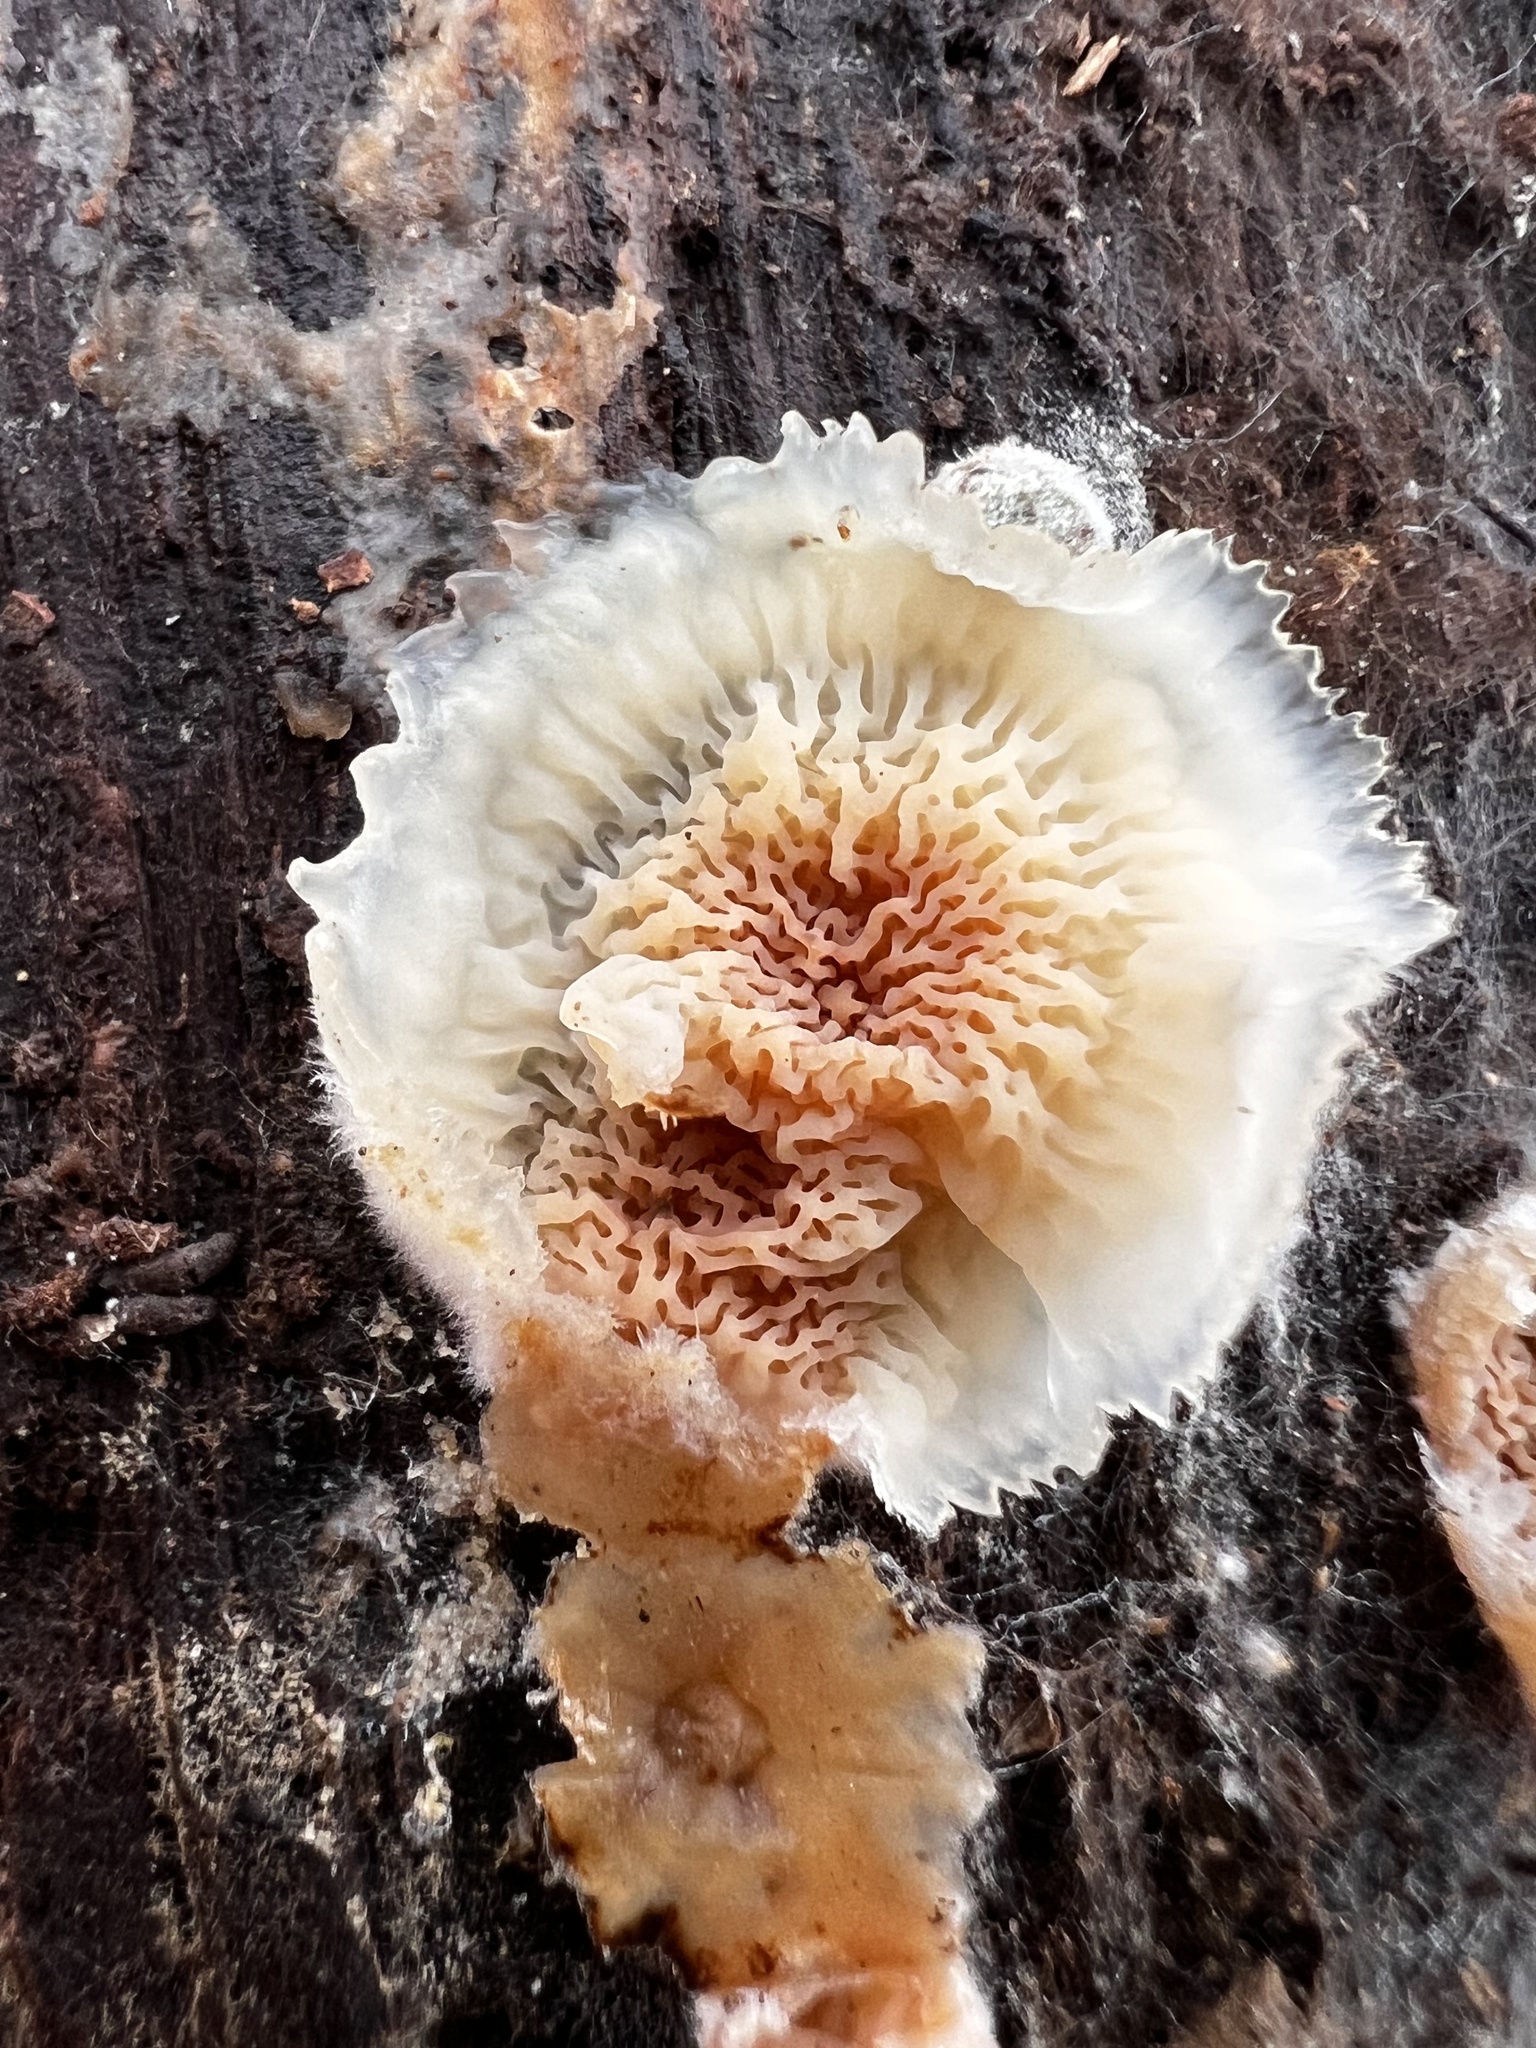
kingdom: Fungi
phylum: Basidiomycota
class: Agaricomycetes
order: Polyporales
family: Meruliaceae
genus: Phlebia
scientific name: Phlebia tremellosa
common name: Jelly rot
